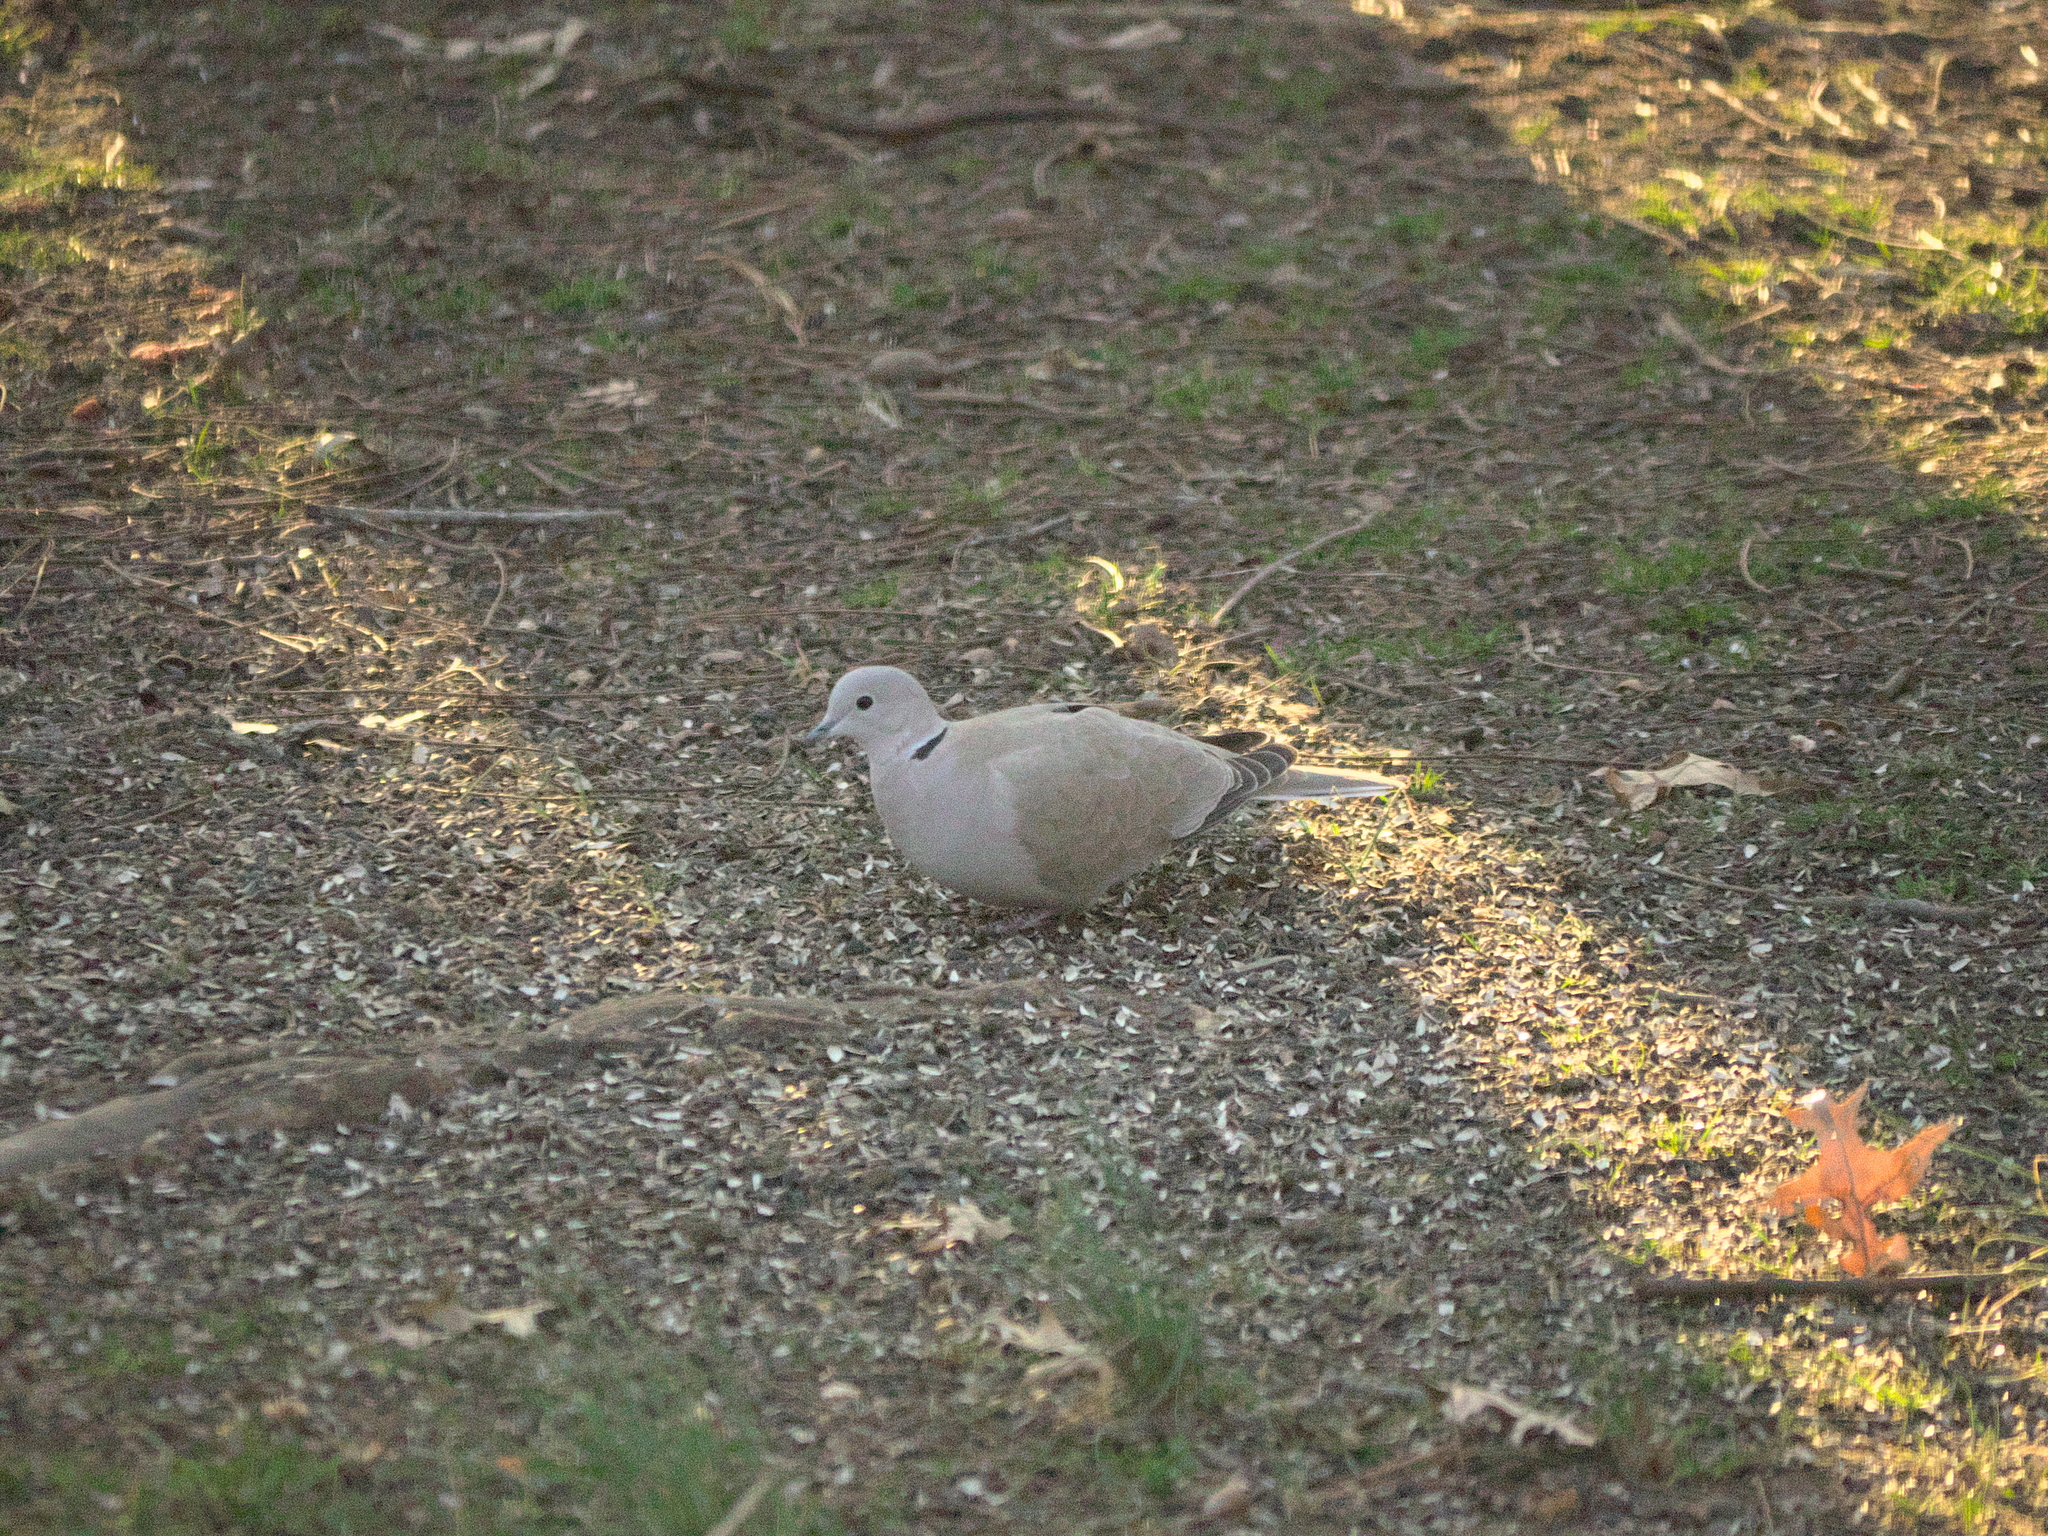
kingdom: Animalia
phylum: Chordata
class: Aves
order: Columbiformes
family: Columbidae
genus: Streptopelia
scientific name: Streptopelia decaocto
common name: Eurasian collared dove
